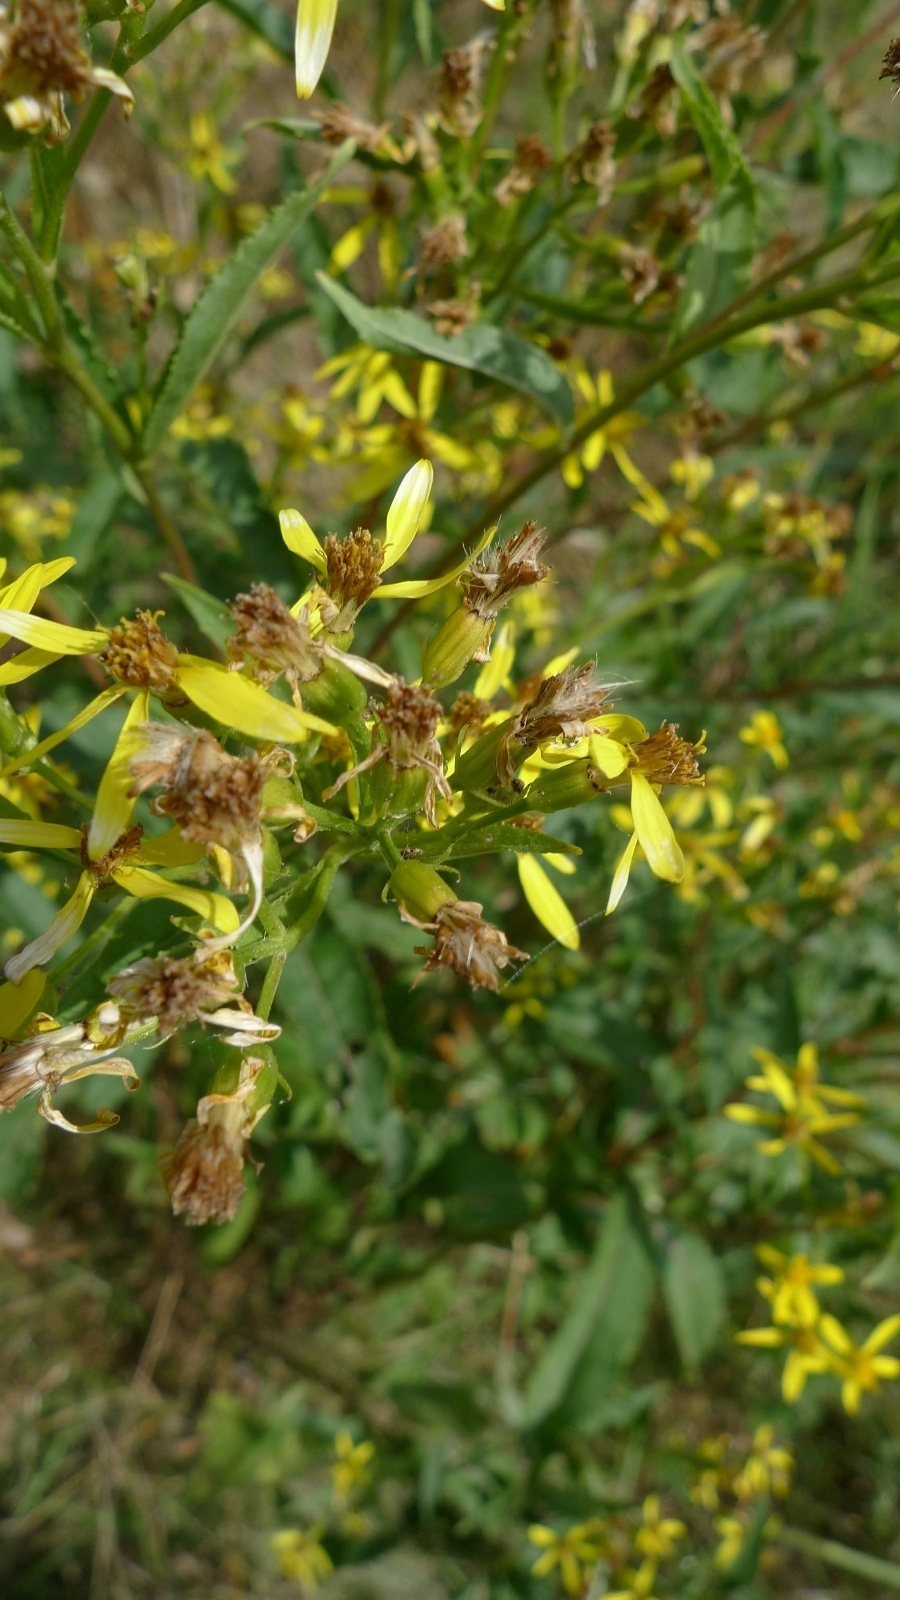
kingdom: Plantae
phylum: Tracheophyta
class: Magnoliopsida
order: Asterales
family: Asteraceae
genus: Senecio
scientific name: Senecio ovatus
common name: Wood ragwort
